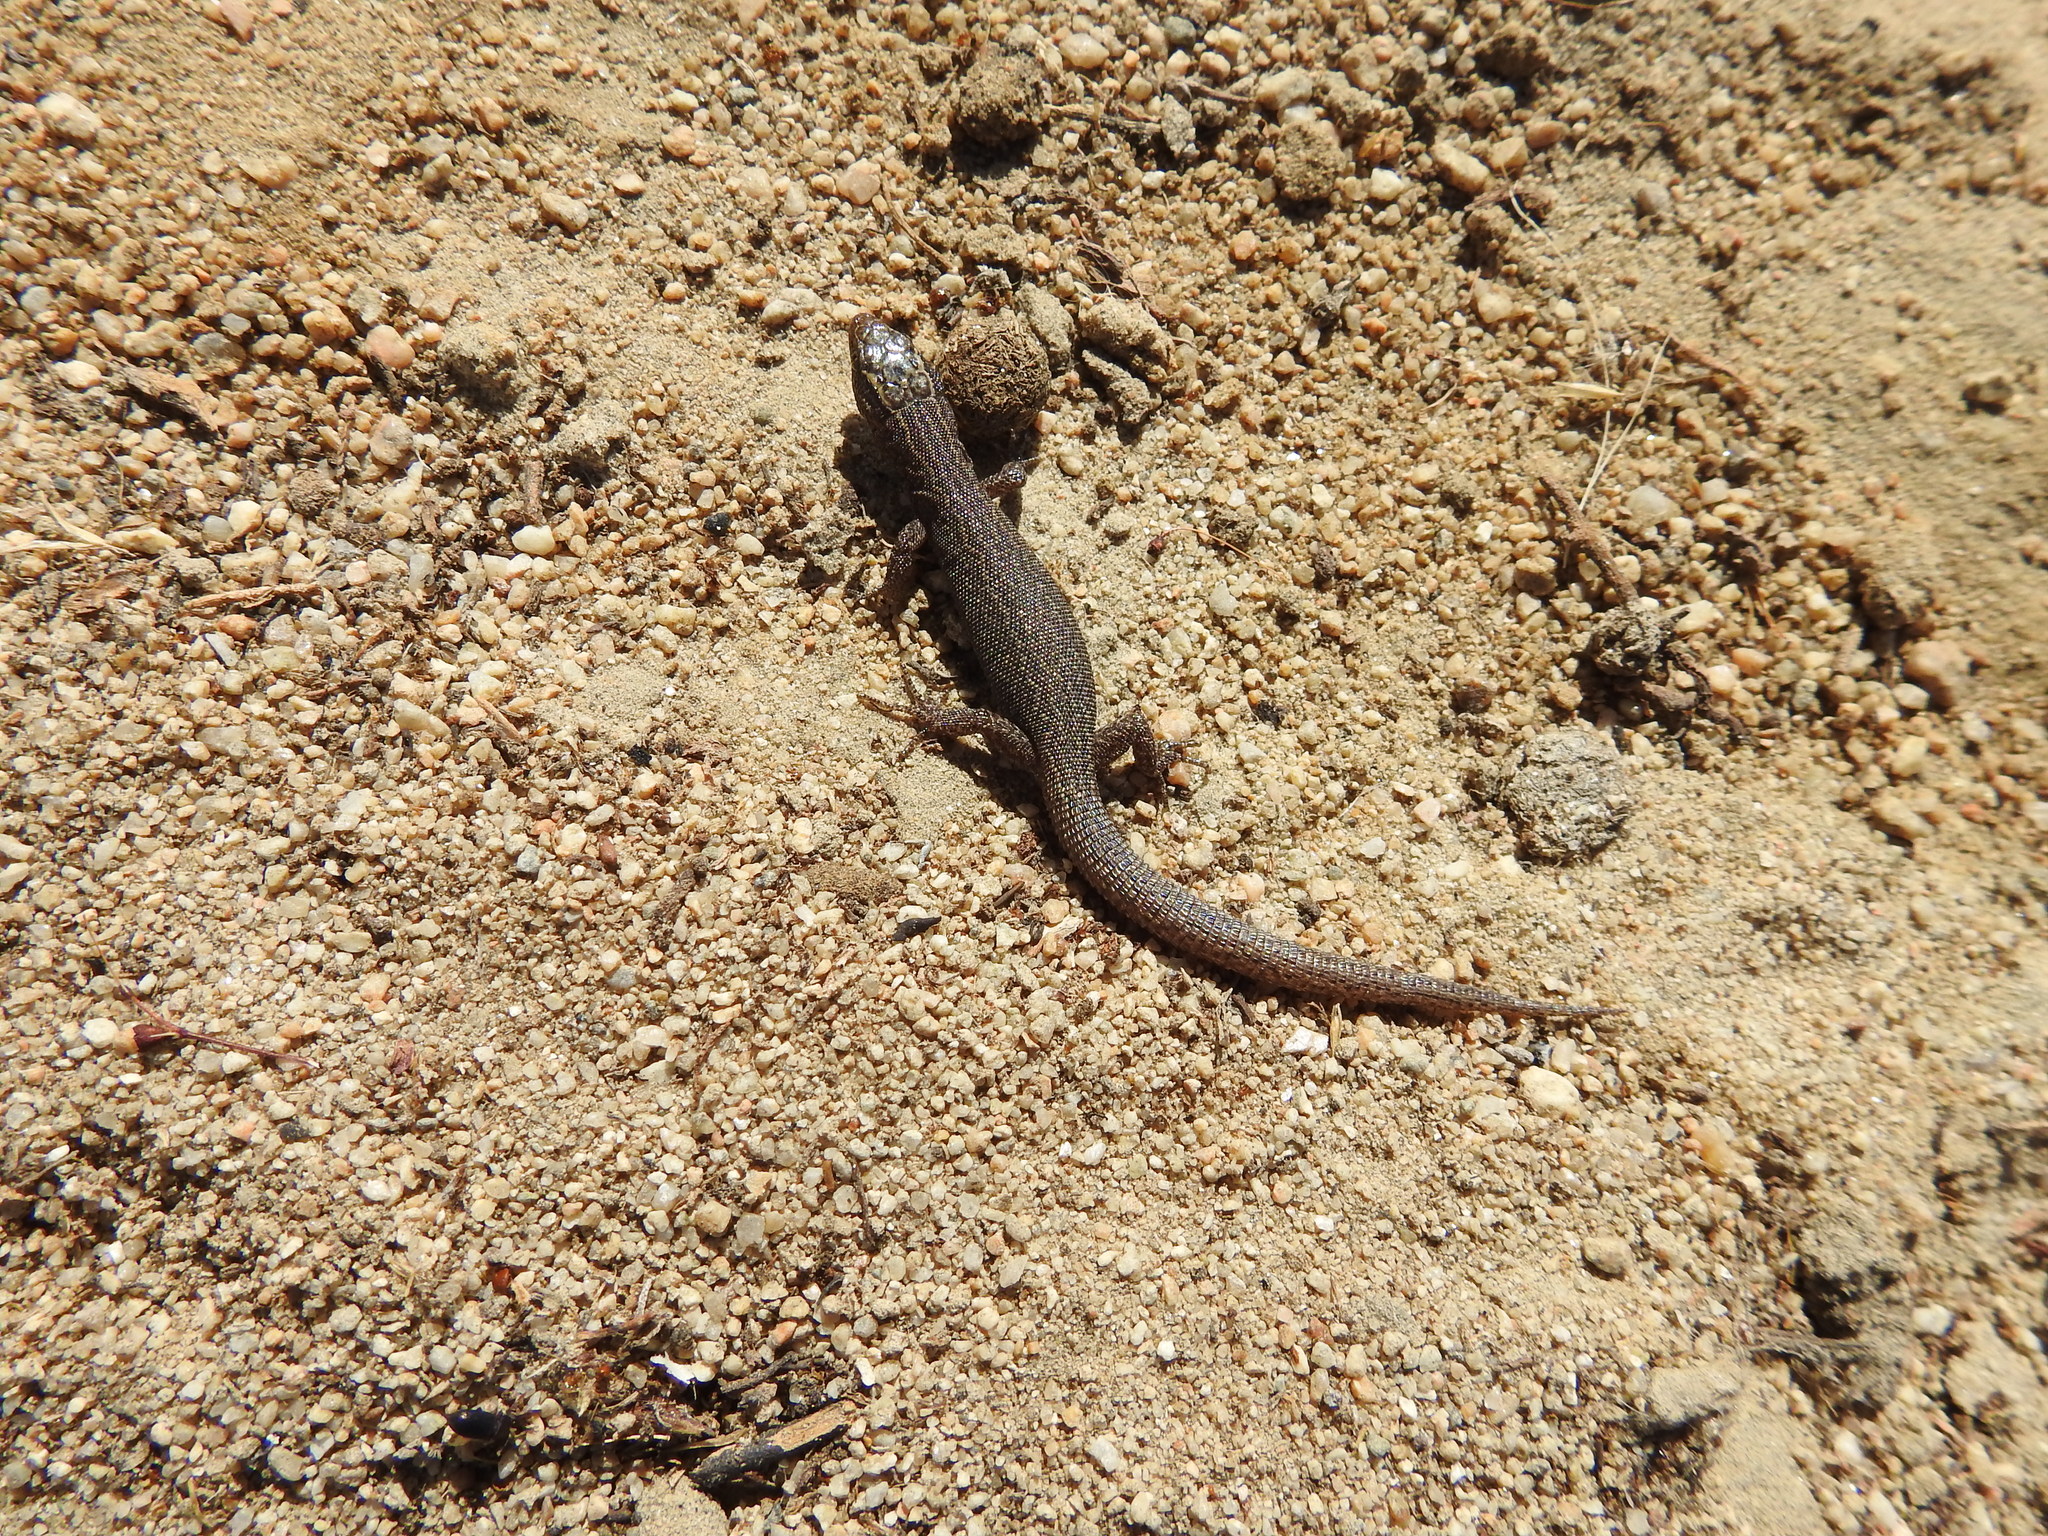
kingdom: Animalia
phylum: Chordata
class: Squamata
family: Xantusiidae
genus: Xantusia
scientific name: Xantusia vigilis
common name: Desert night lizard
